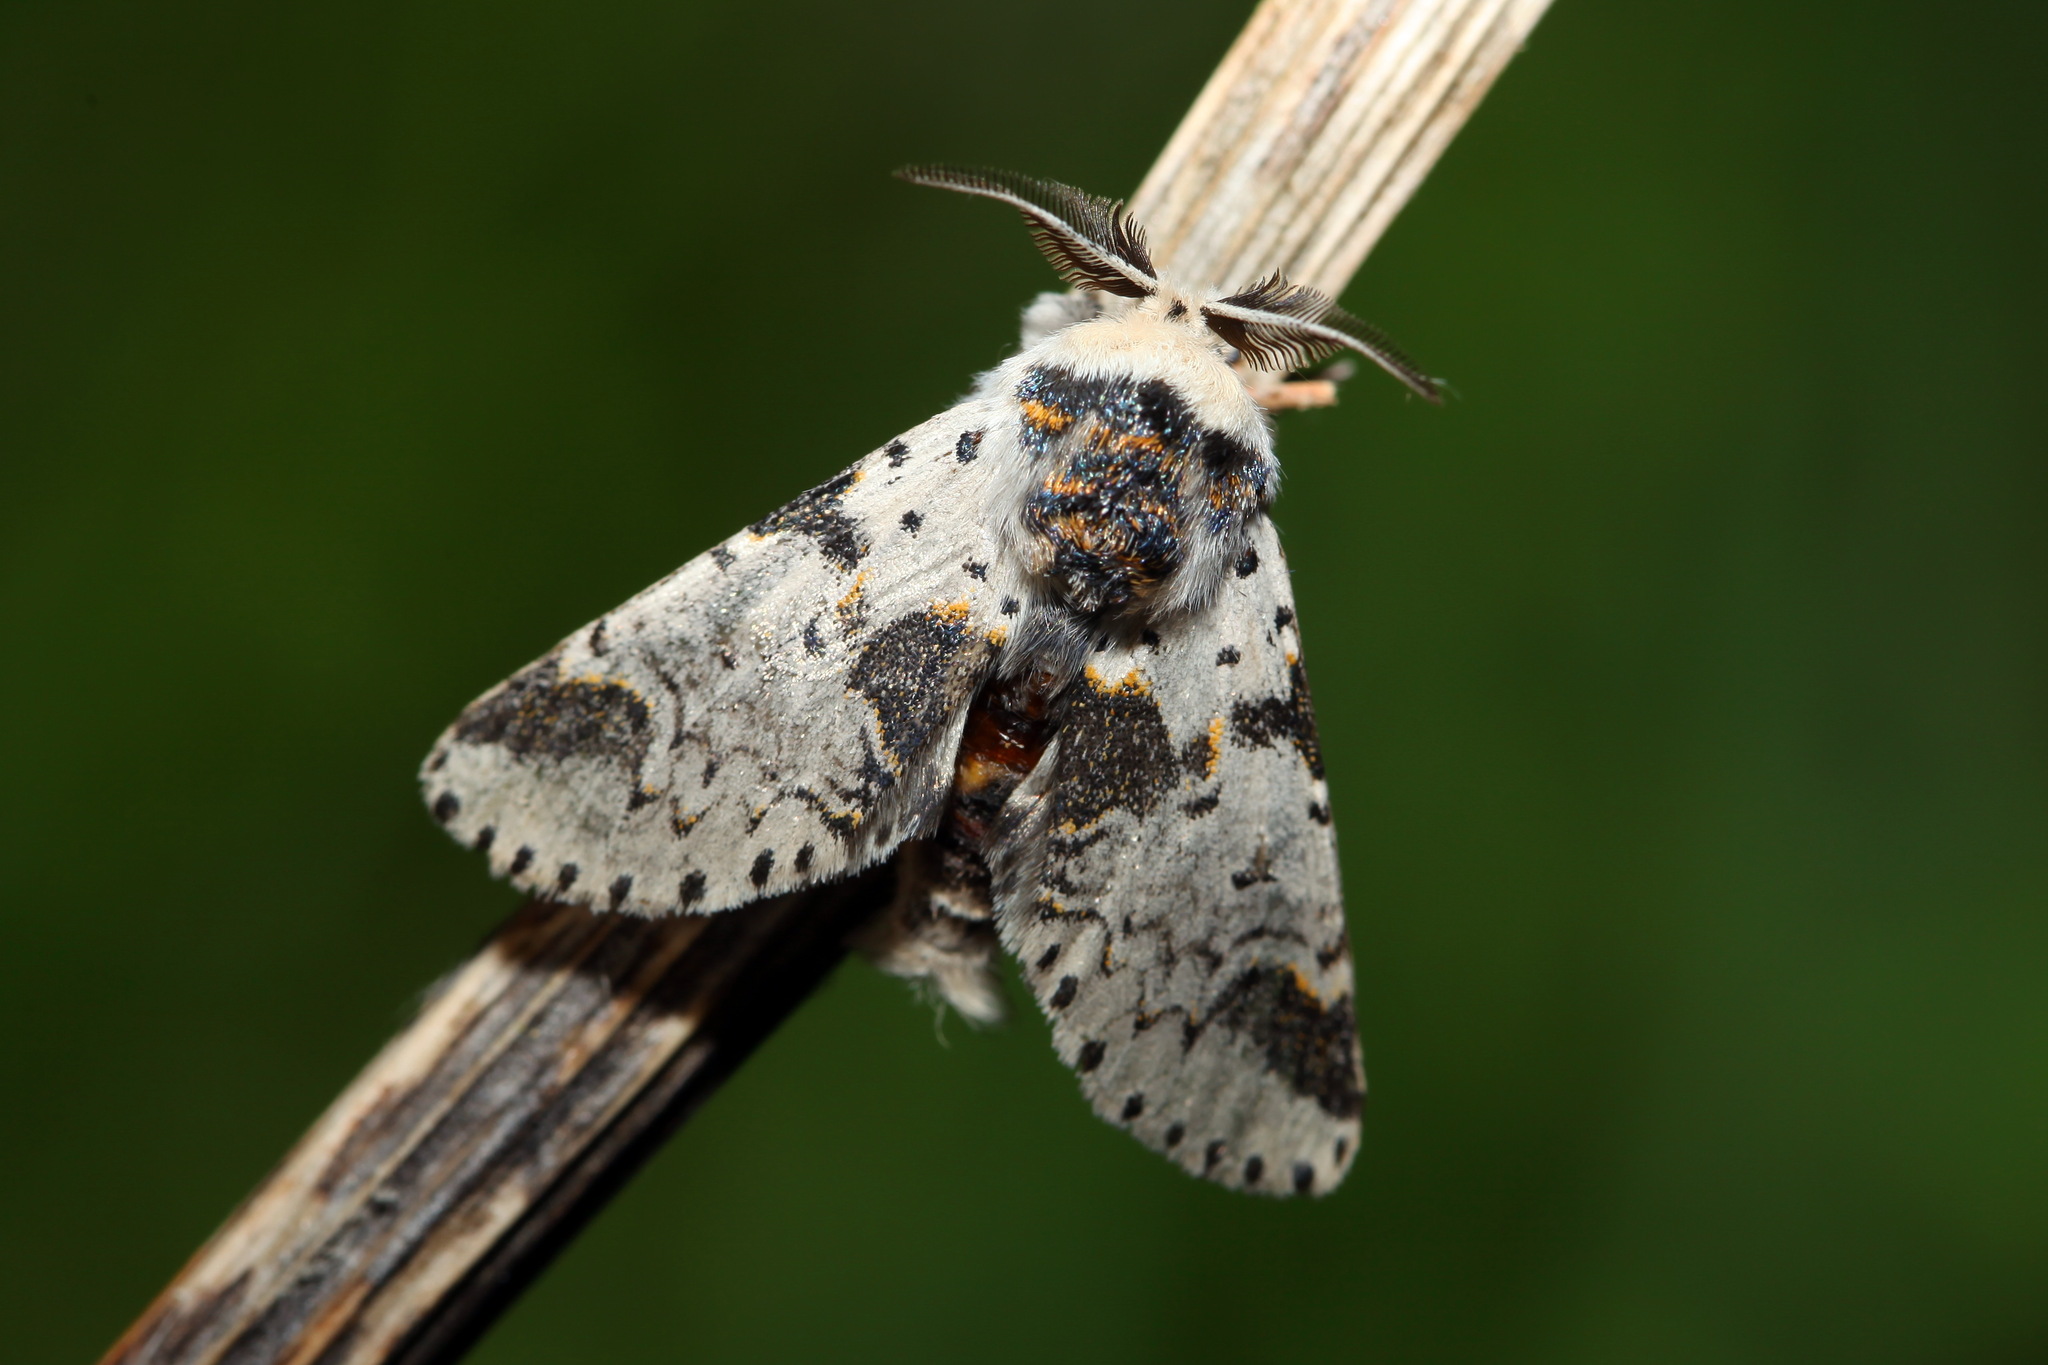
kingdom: Animalia
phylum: Arthropoda
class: Insecta
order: Lepidoptera
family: Notodontidae
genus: Furcula
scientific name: Furcula bicuspis
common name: Alder kitten
